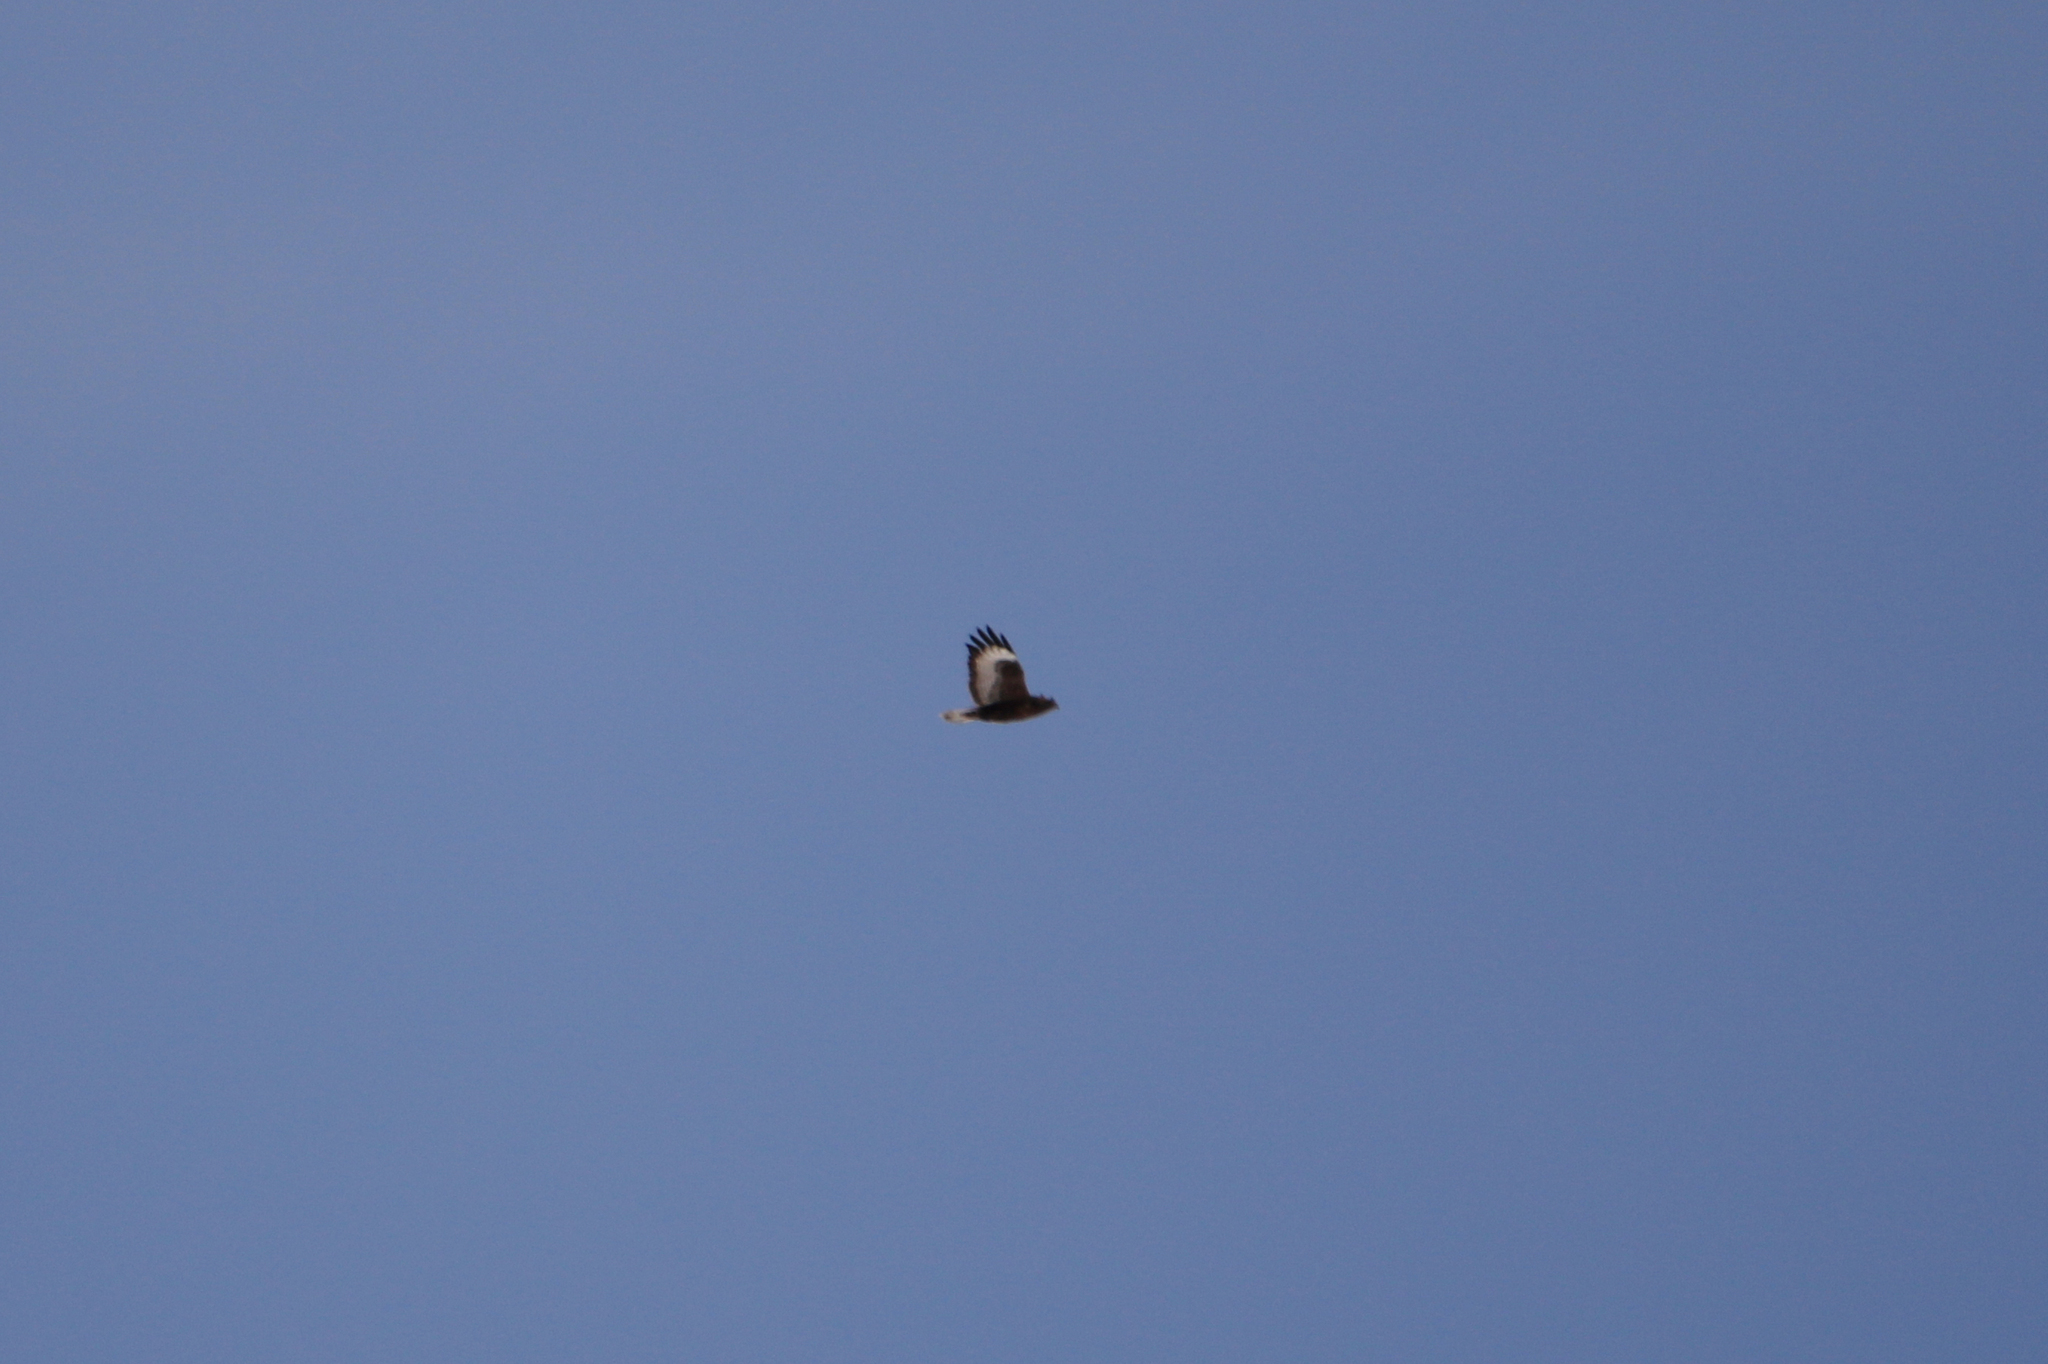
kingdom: Animalia
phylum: Chordata
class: Aves
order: Accipitriformes
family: Accipitridae
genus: Buteo
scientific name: Buteo hemilasius
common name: Upland buzzard
